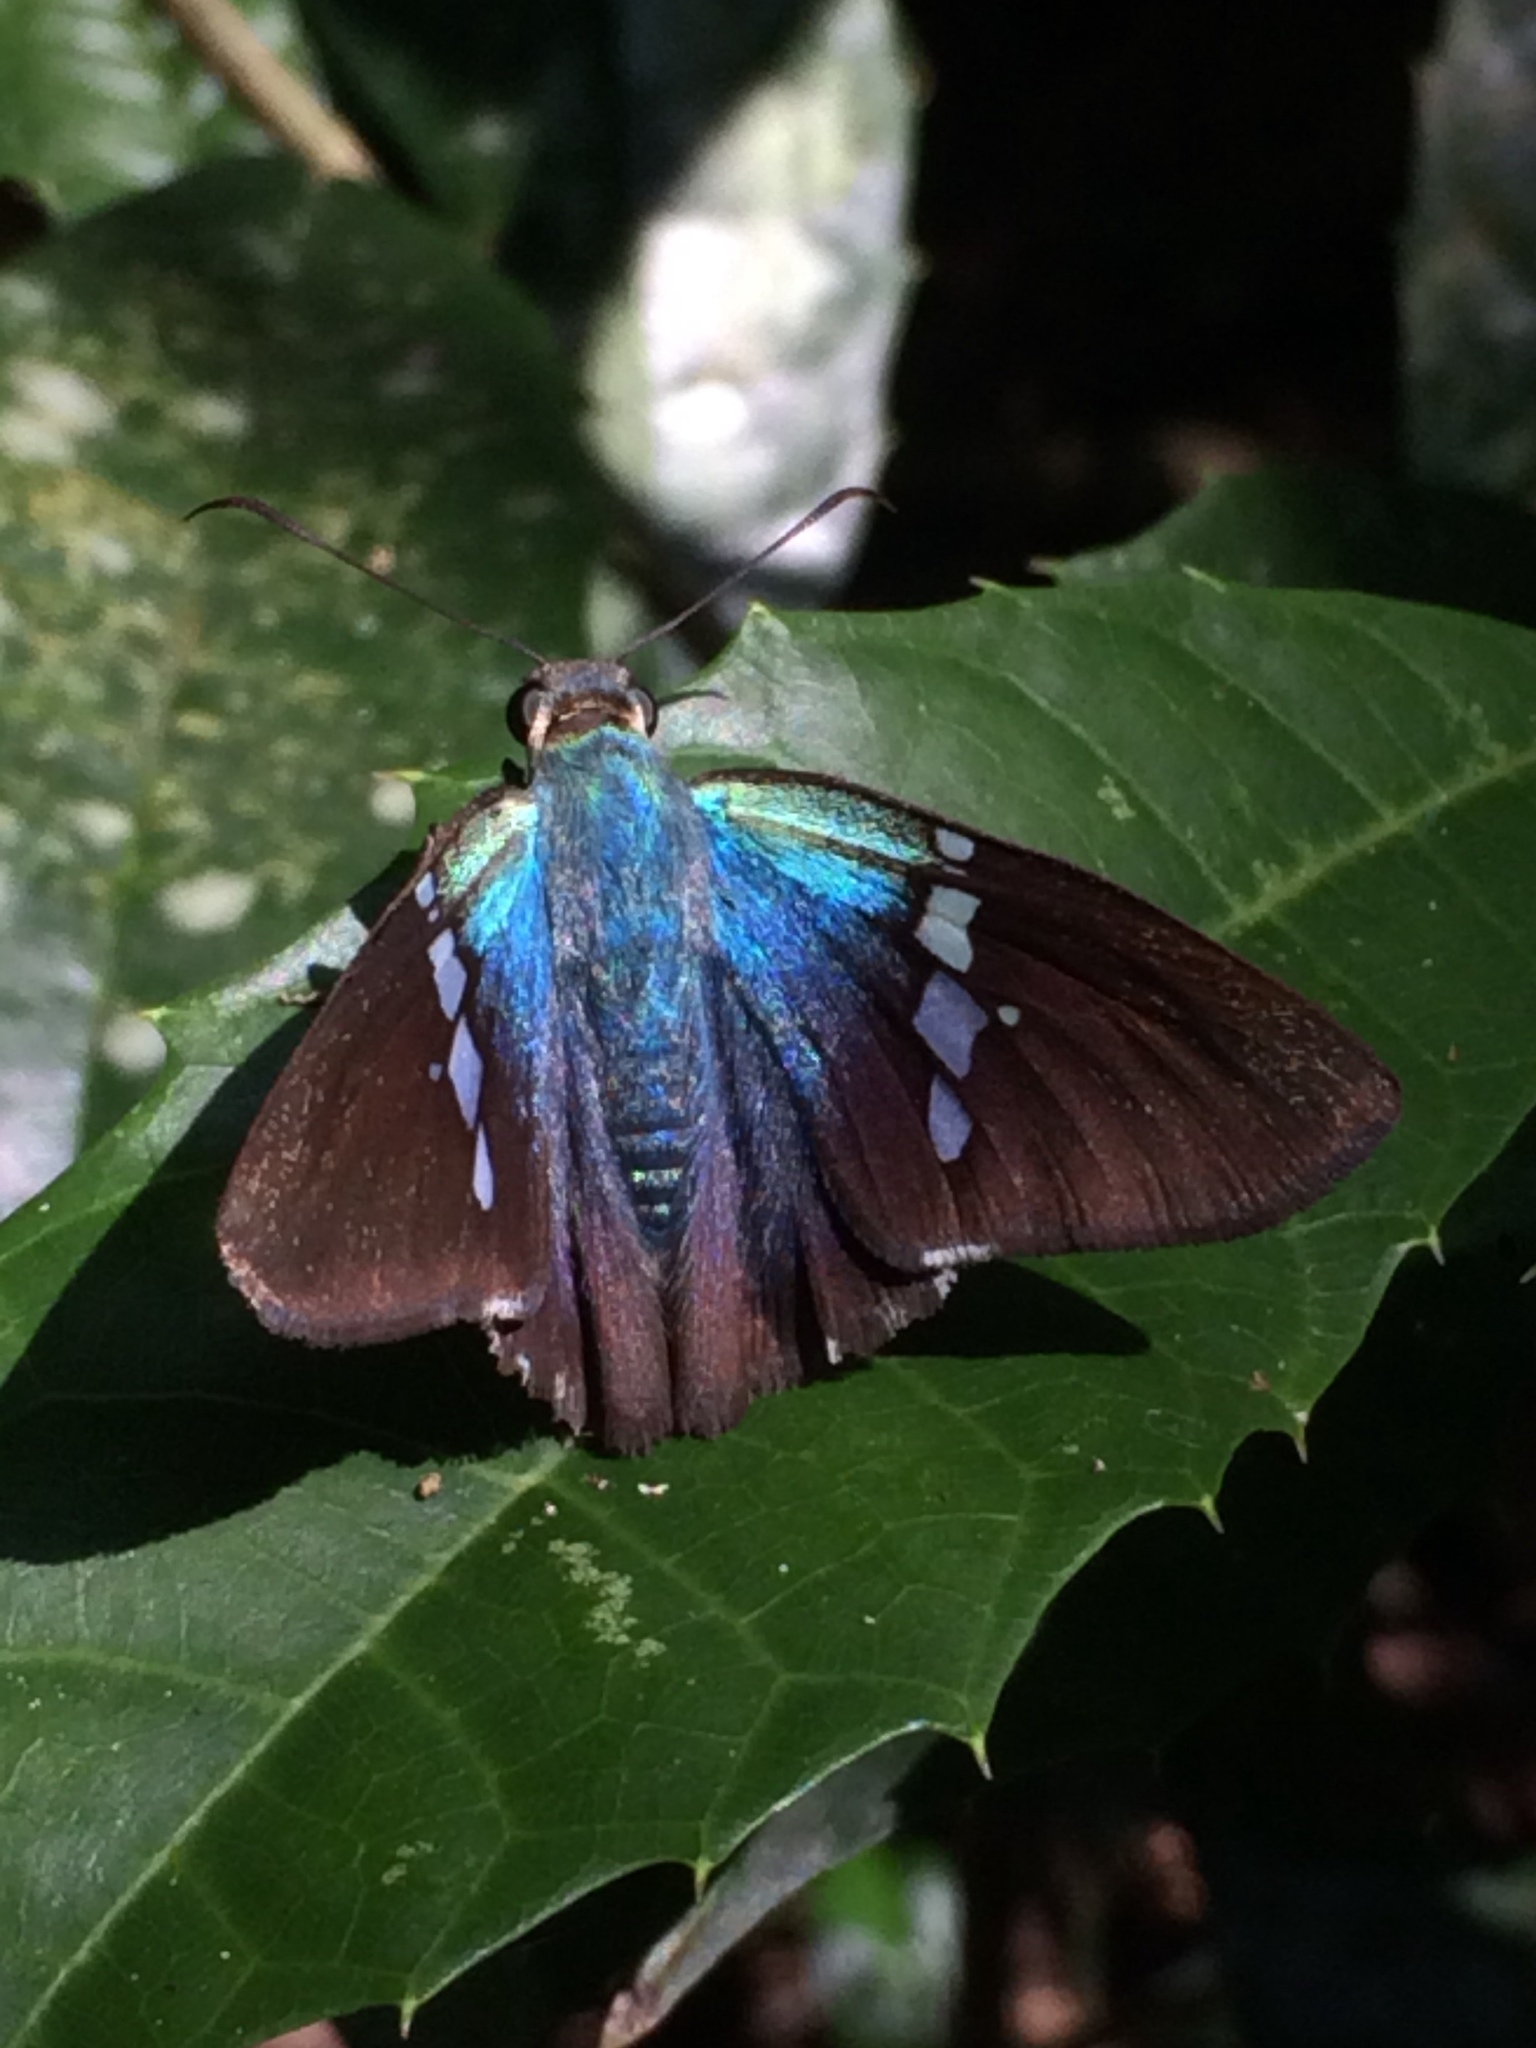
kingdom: Animalia
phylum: Arthropoda
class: Insecta
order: Lepidoptera
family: Hesperiidae
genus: Astraptes
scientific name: Astraptes enotrus
